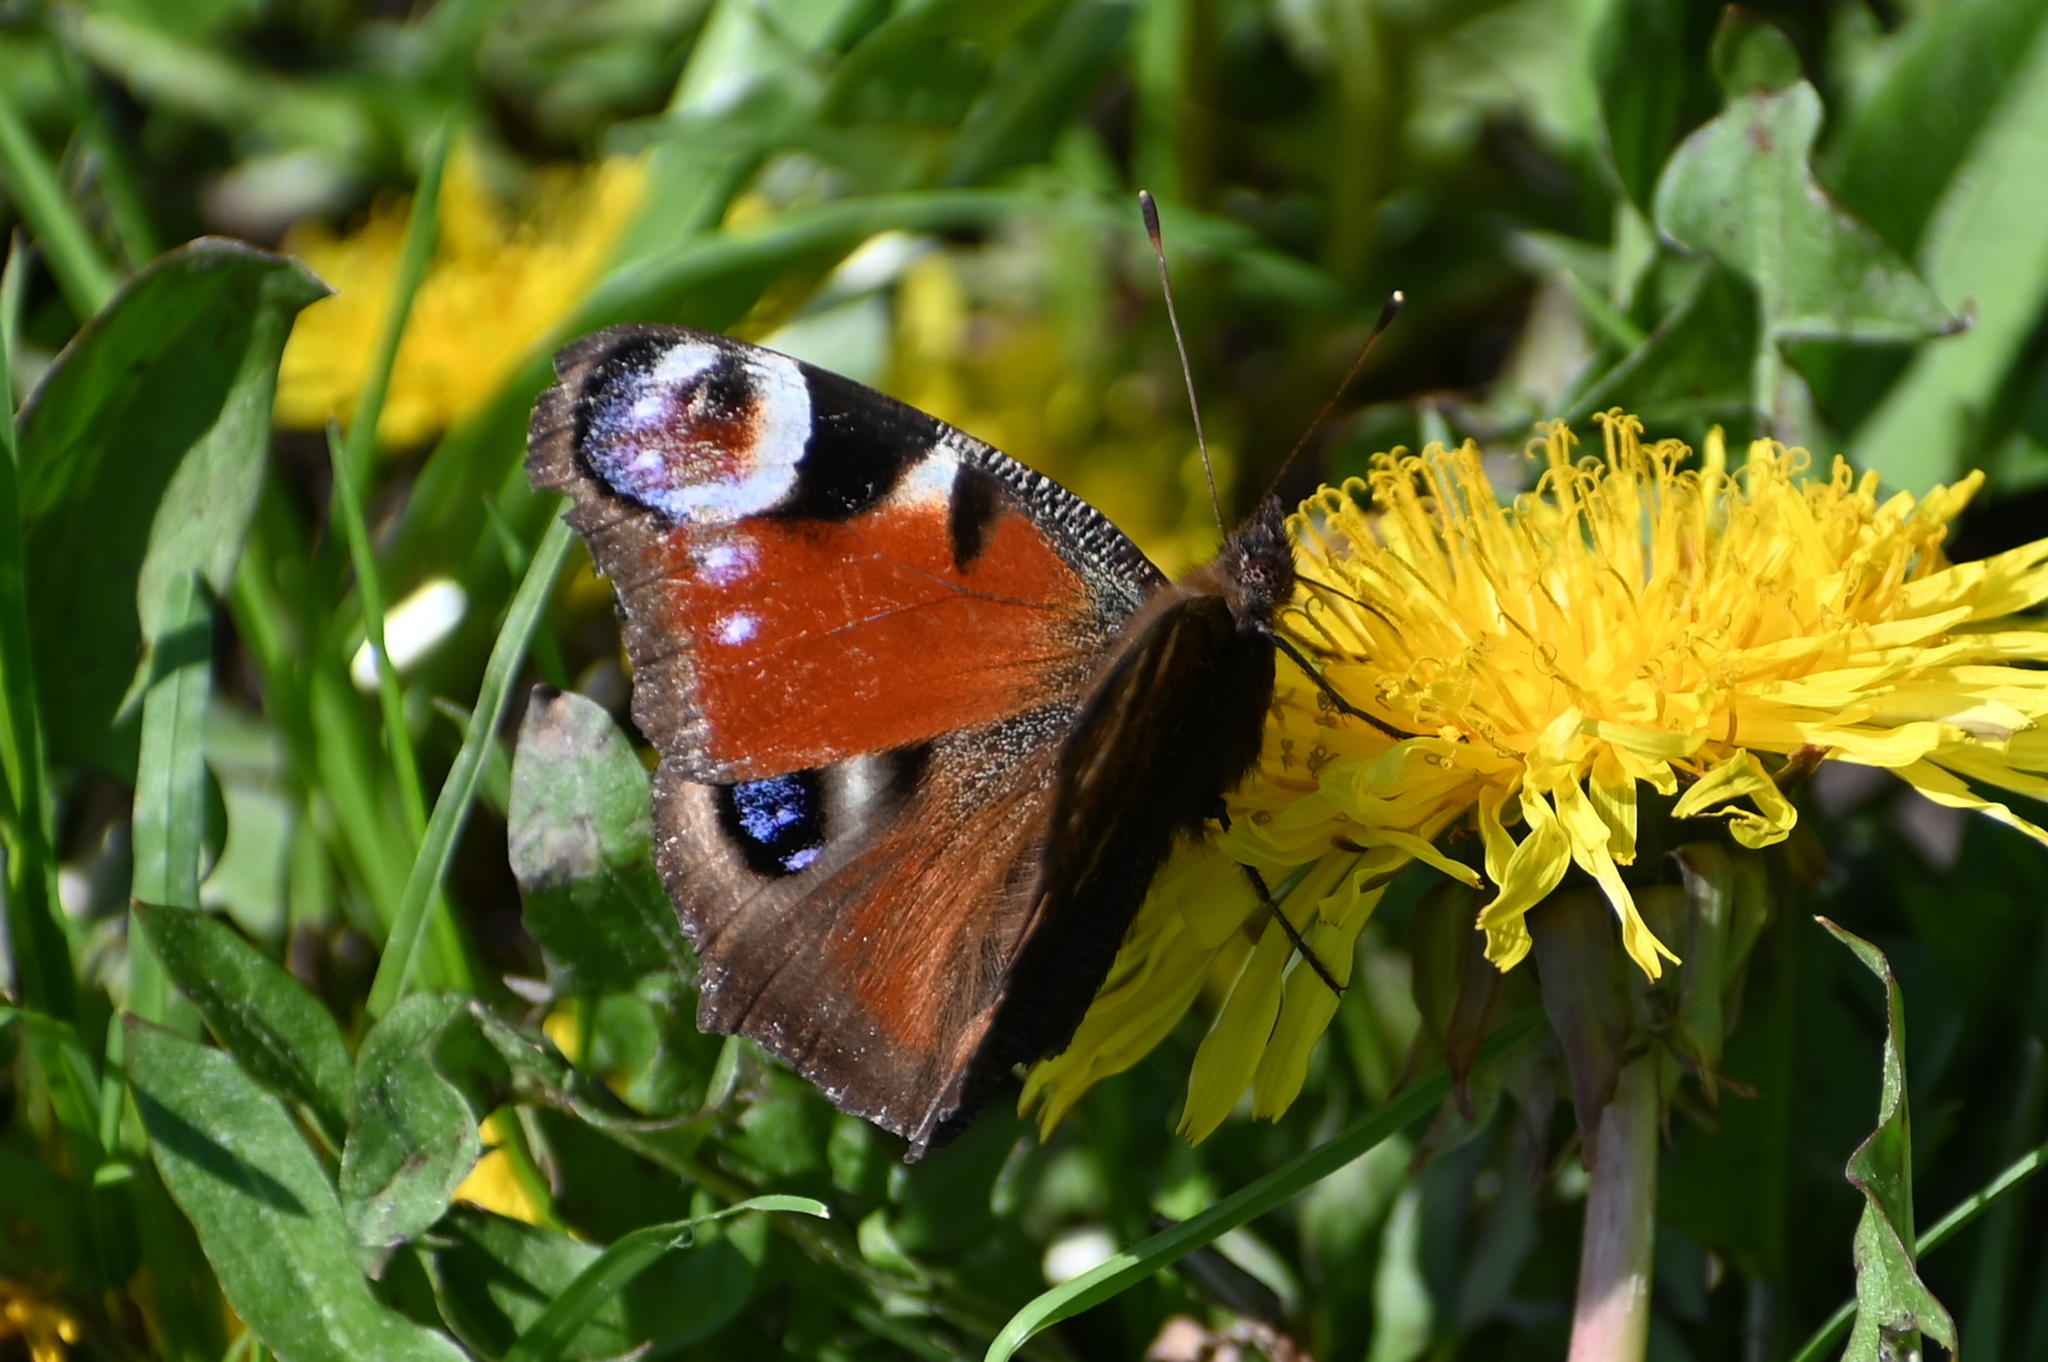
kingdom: Animalia
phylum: Arthropoda
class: Insecta
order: Lepidoptera
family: Nymphalidae
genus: Aglais
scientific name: Aglais io
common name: Peacock
